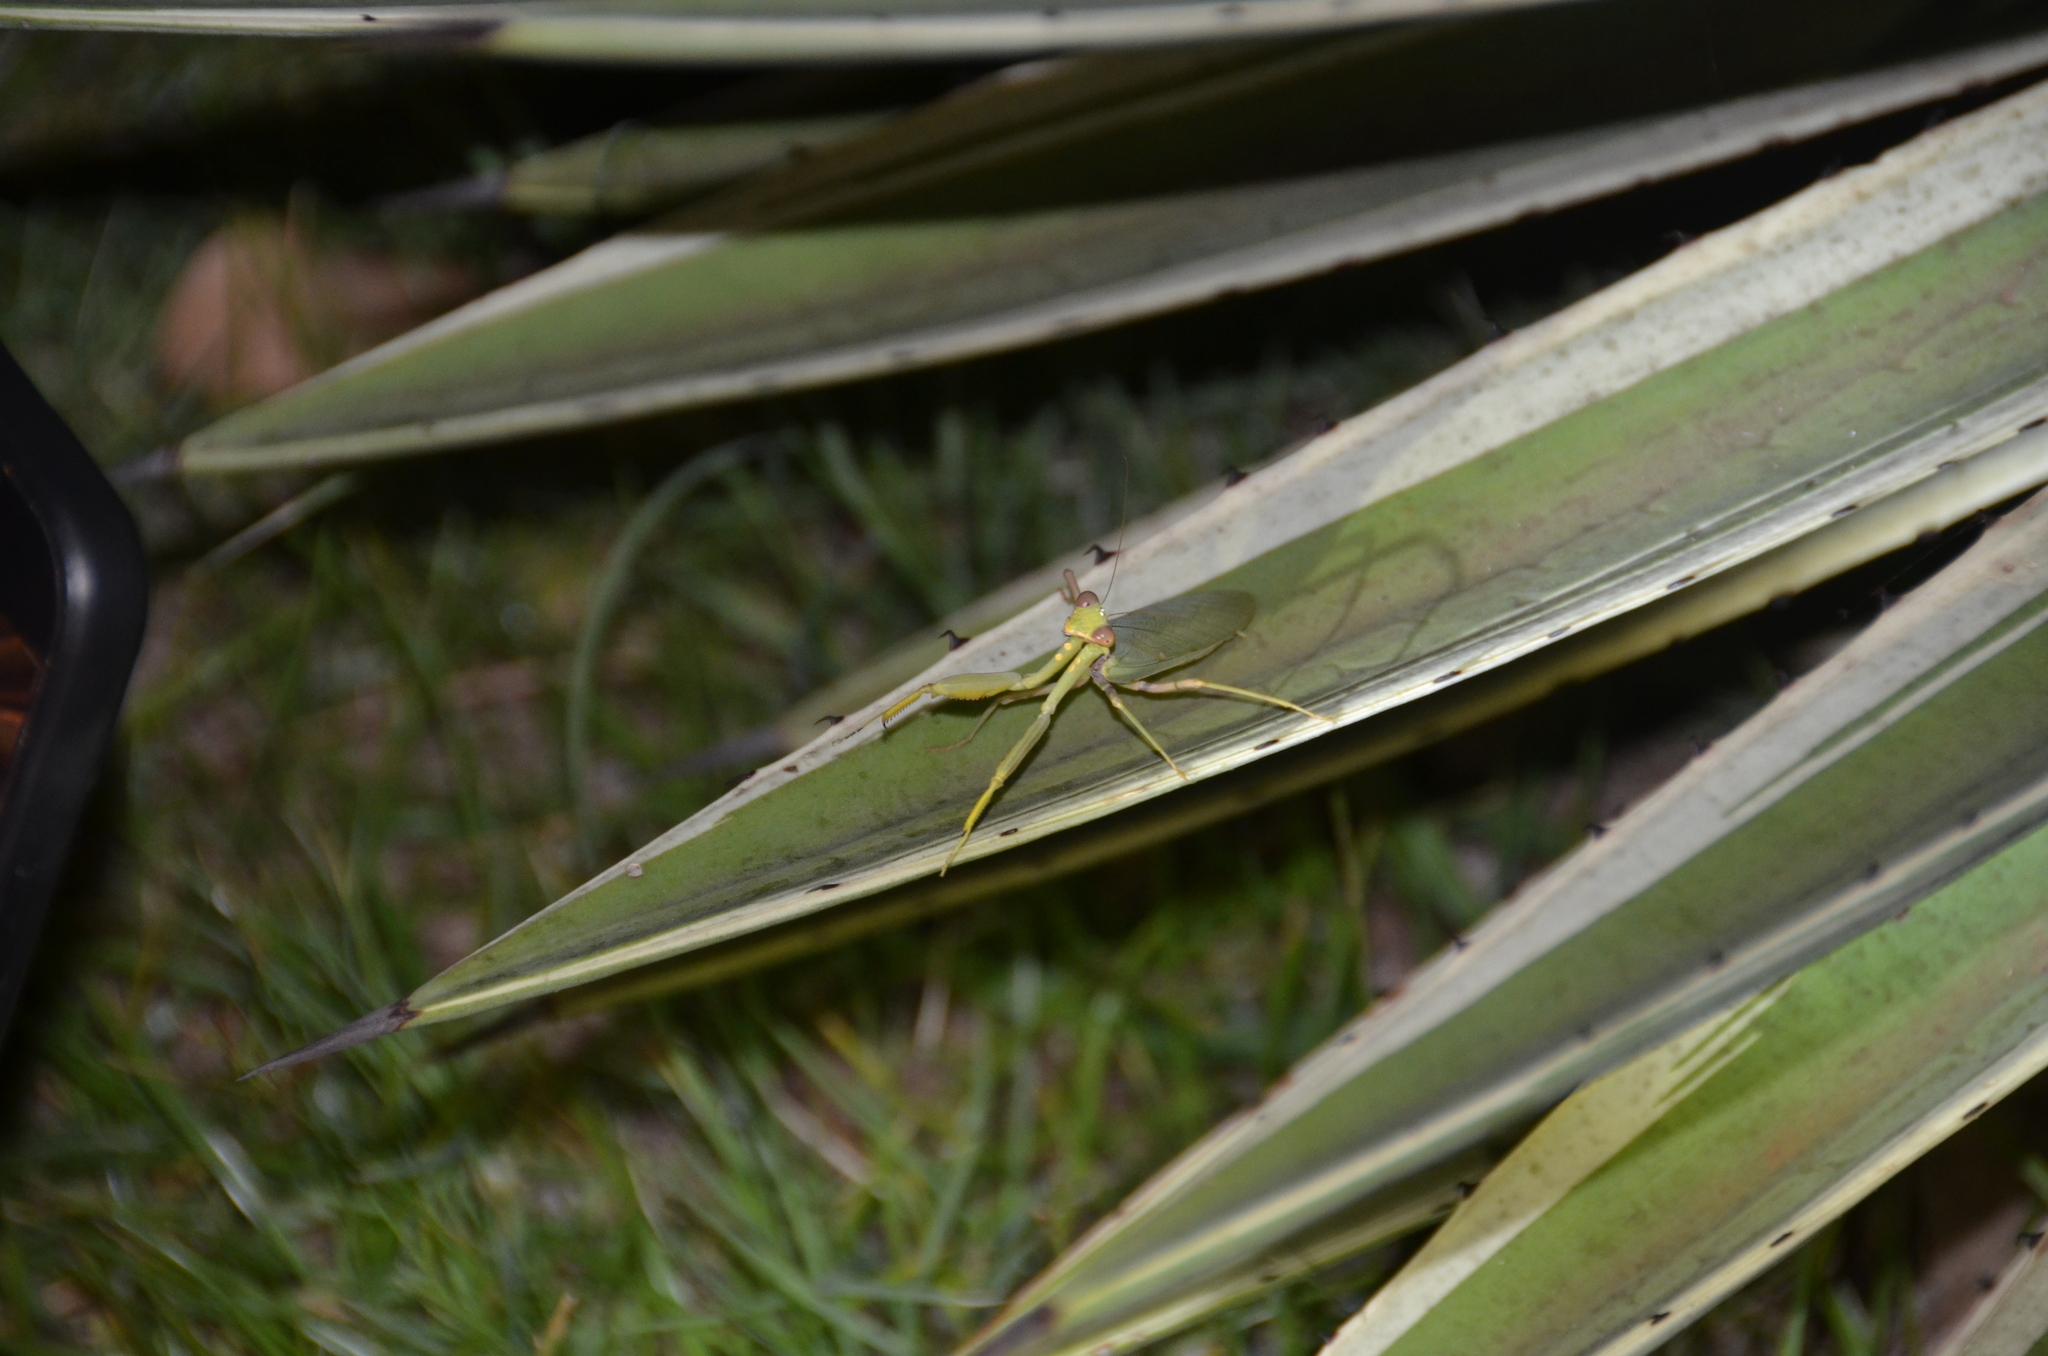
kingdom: Animalia
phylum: Arthropoda
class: Insecta
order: Mantodea
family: Mantidae
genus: Hierodula
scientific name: Hierodula patellifera
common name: Asian mantis
